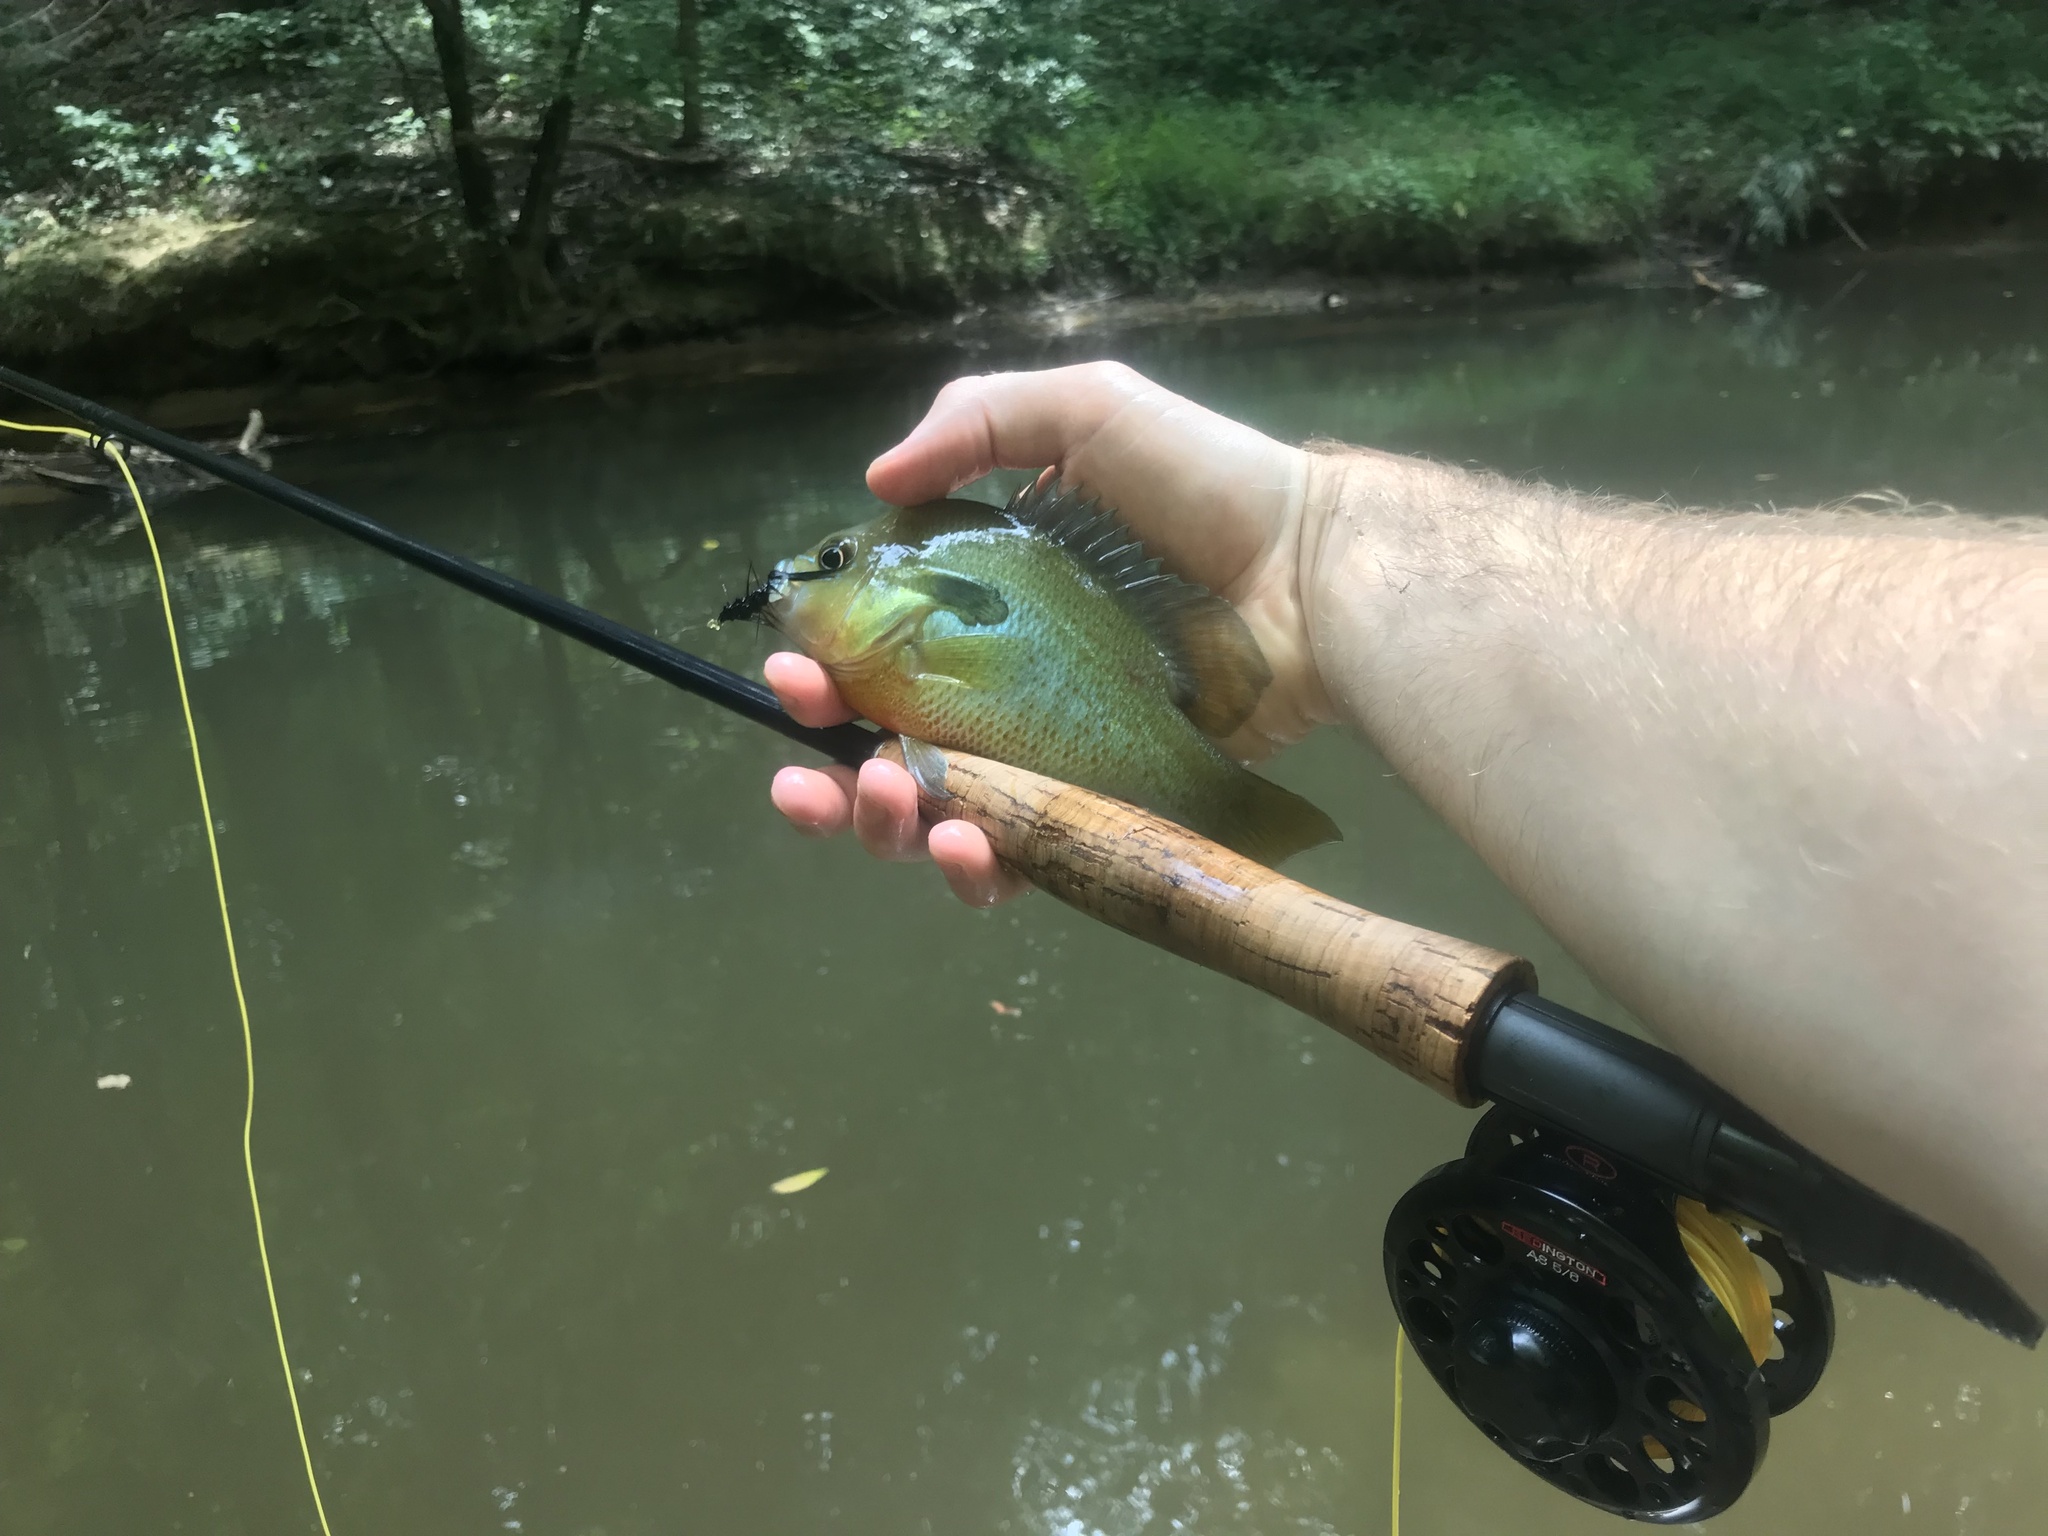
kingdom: Animalia
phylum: Chordata
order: Perciformes
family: Centrarchidae
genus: Lepomis
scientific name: Lepomis auritus
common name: Redbreast sunfish
